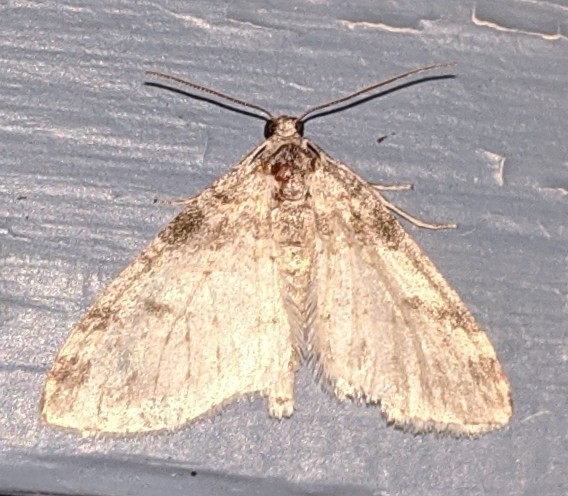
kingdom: Animalia
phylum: Arthropoda
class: Insecta
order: Lepidoptera
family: Geometridae
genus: Lobophora
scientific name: Lobophora nivigerata
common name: Powdered bigwing
